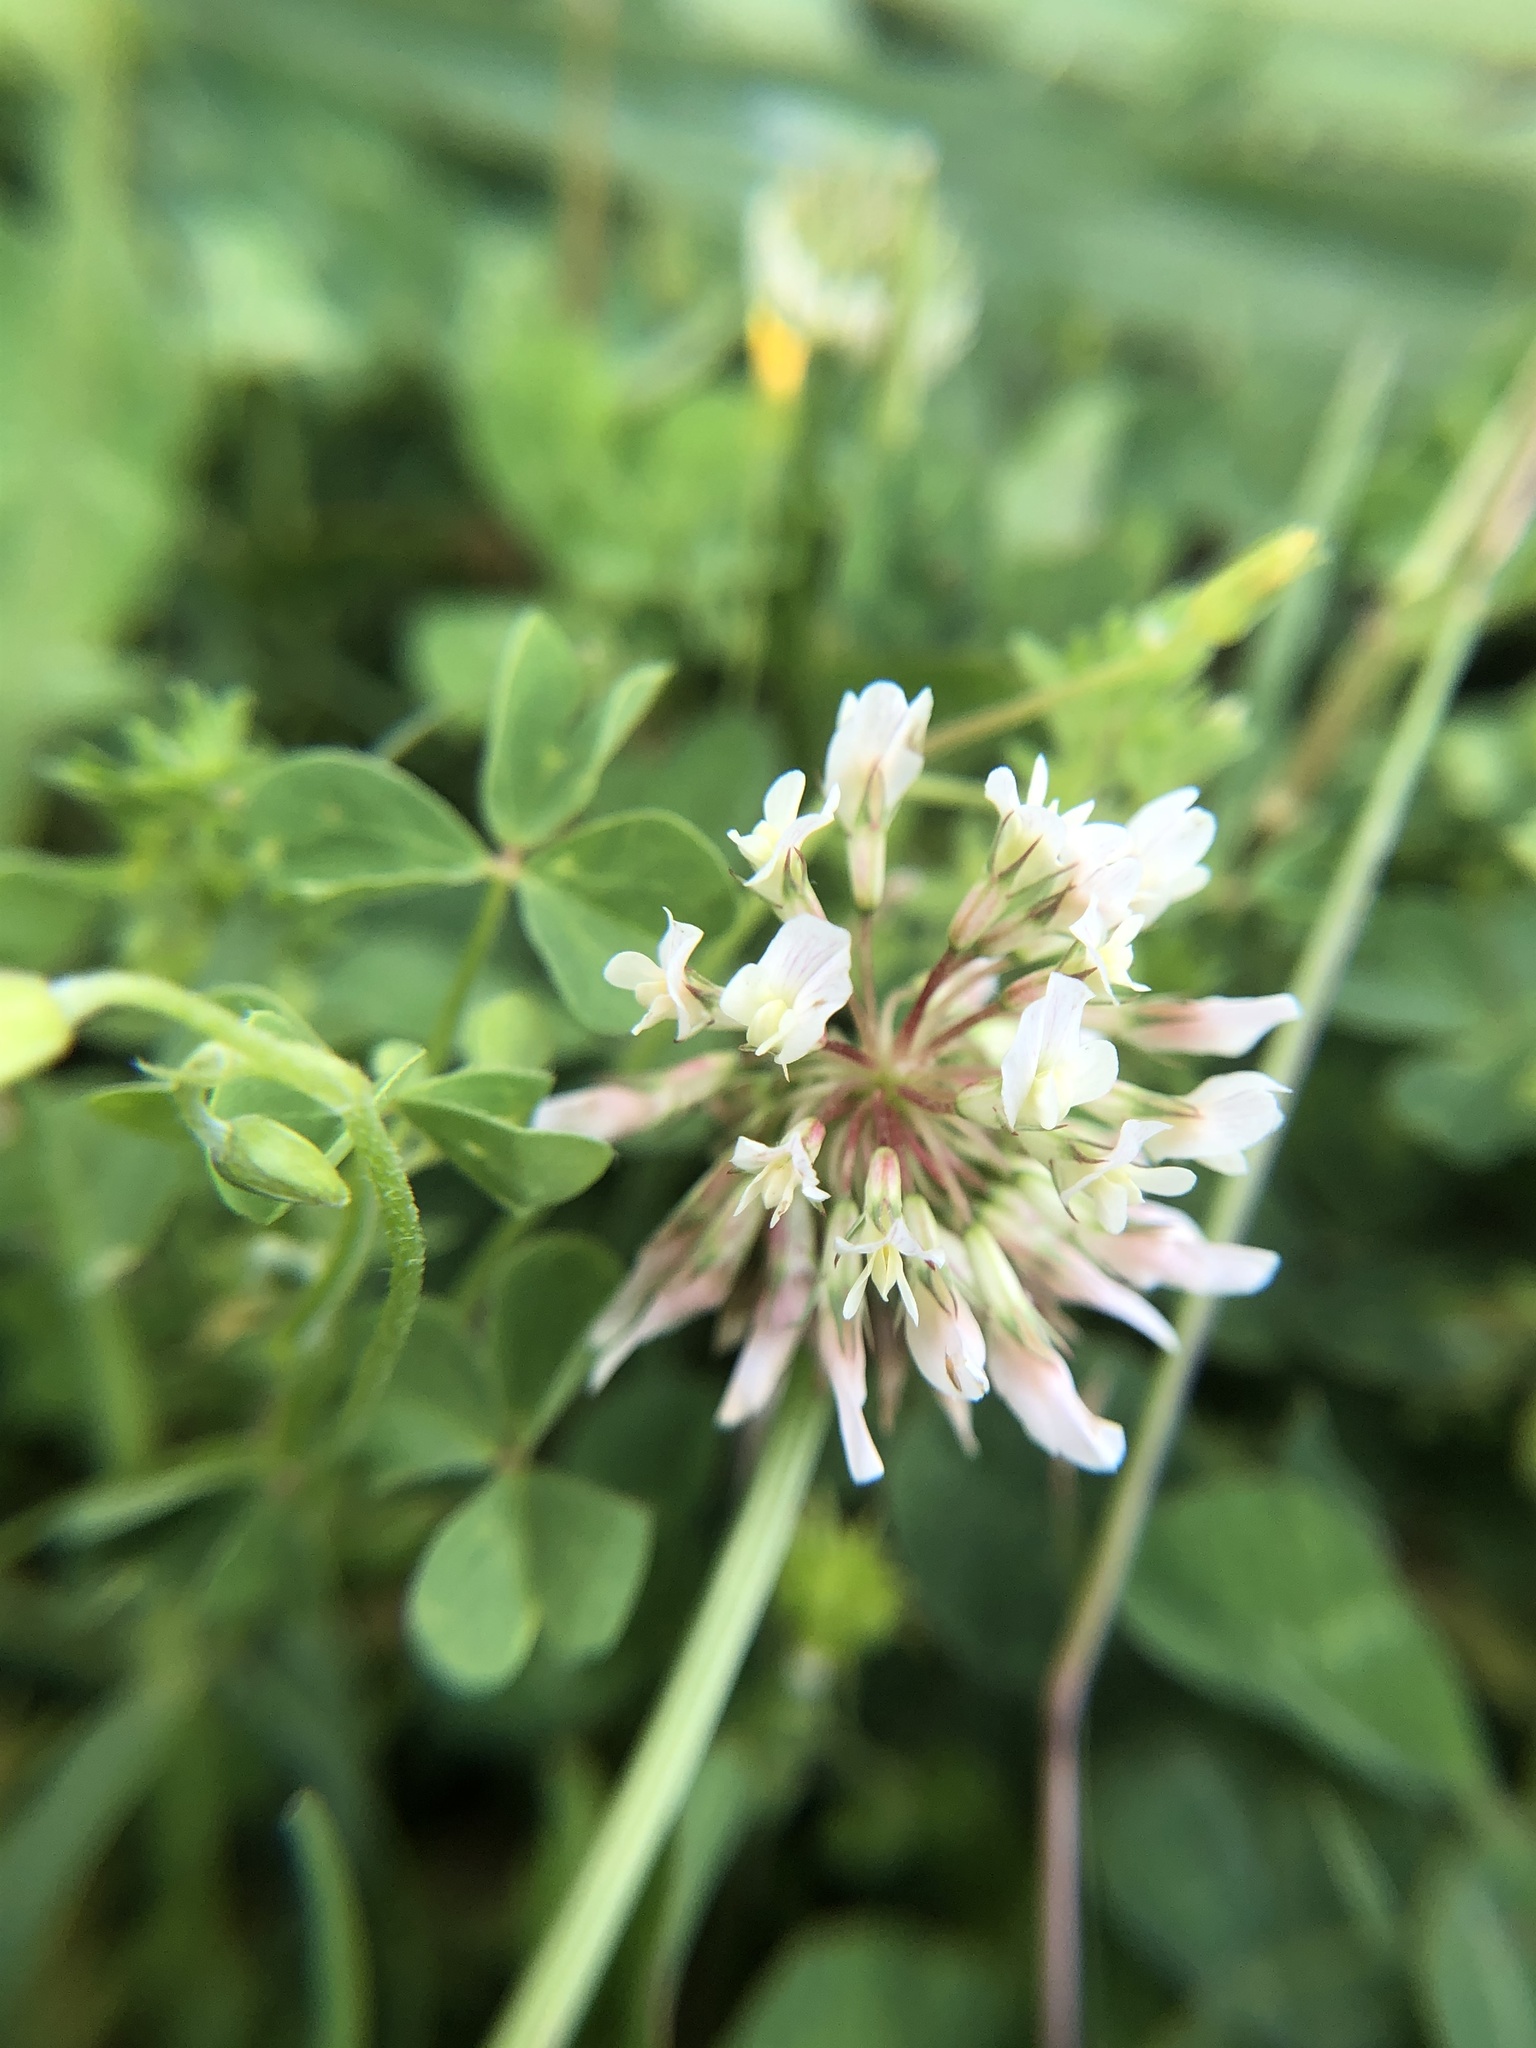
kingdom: Plantae
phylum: Tracheophyta
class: Magnoliopsida
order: Fabales
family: Fabaceae
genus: Trifolium
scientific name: Trifolium repens
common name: White clover
